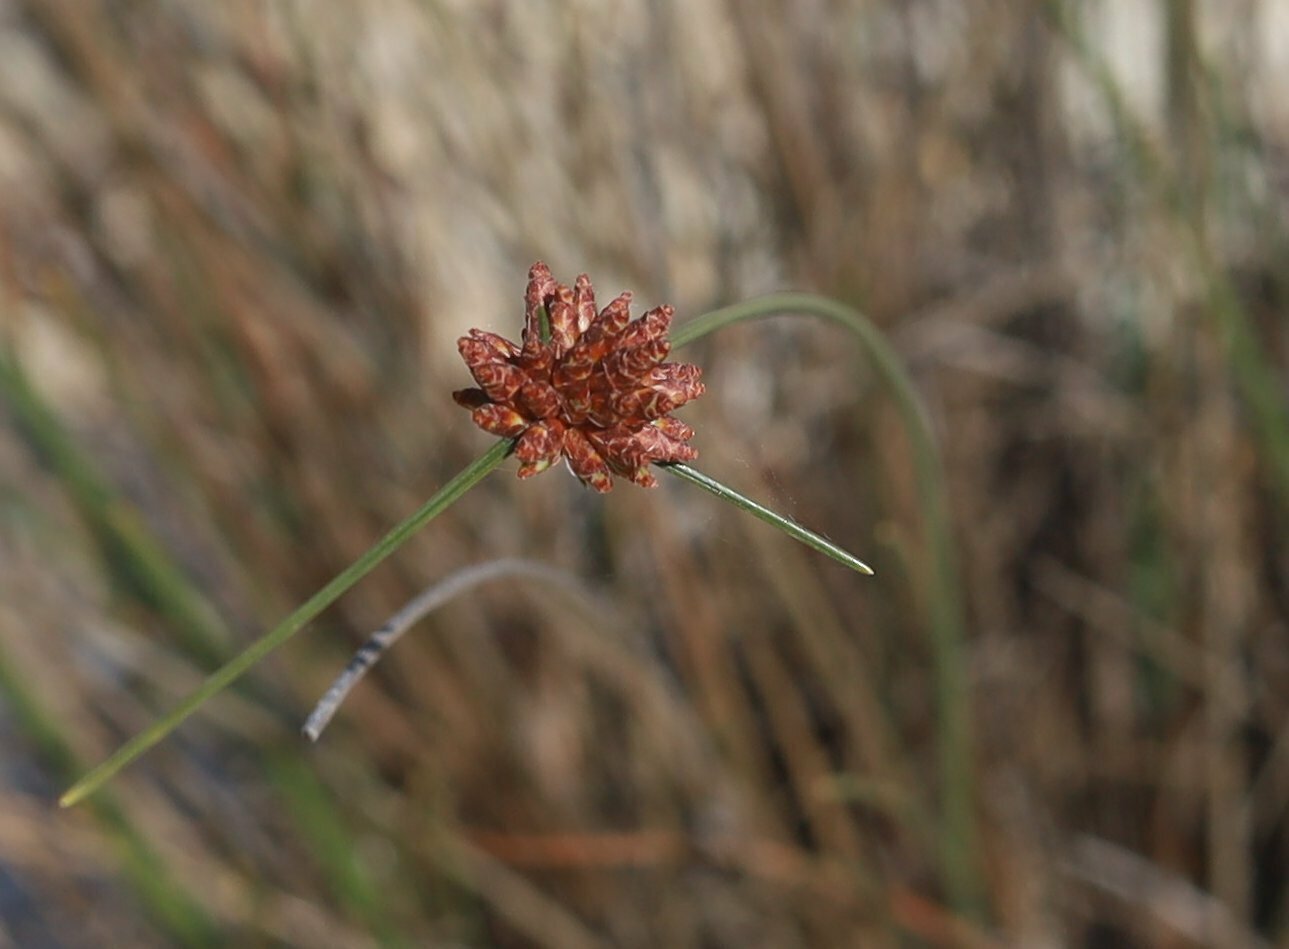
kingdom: Plantae
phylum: Tracheophyta
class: Liliopsida
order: Poales
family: Cyperaceae
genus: Ficinia
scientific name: Ficinia ecklonea
